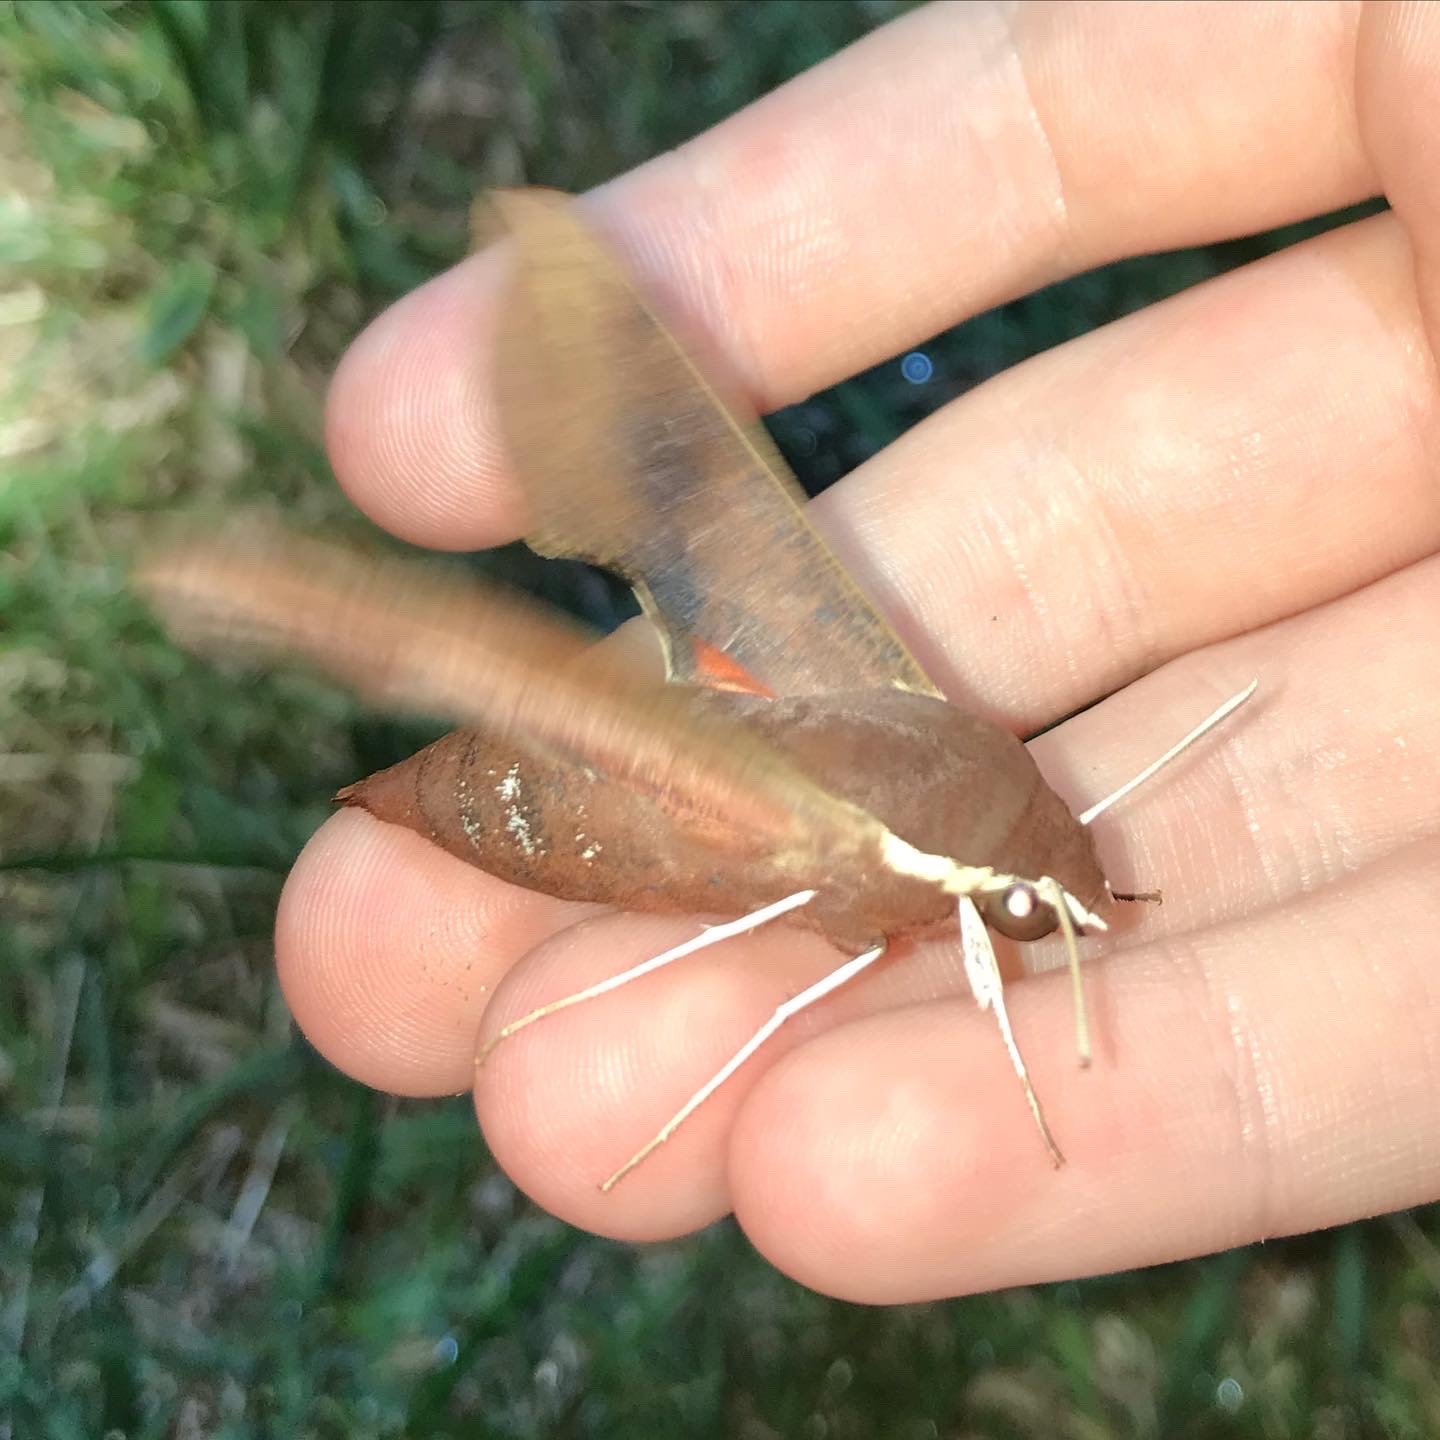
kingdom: Animalia
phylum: Arthropoda
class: Insecta
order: Lepidoptera
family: Sphingidae
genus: Hippotion
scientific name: Hippotion scrofa
